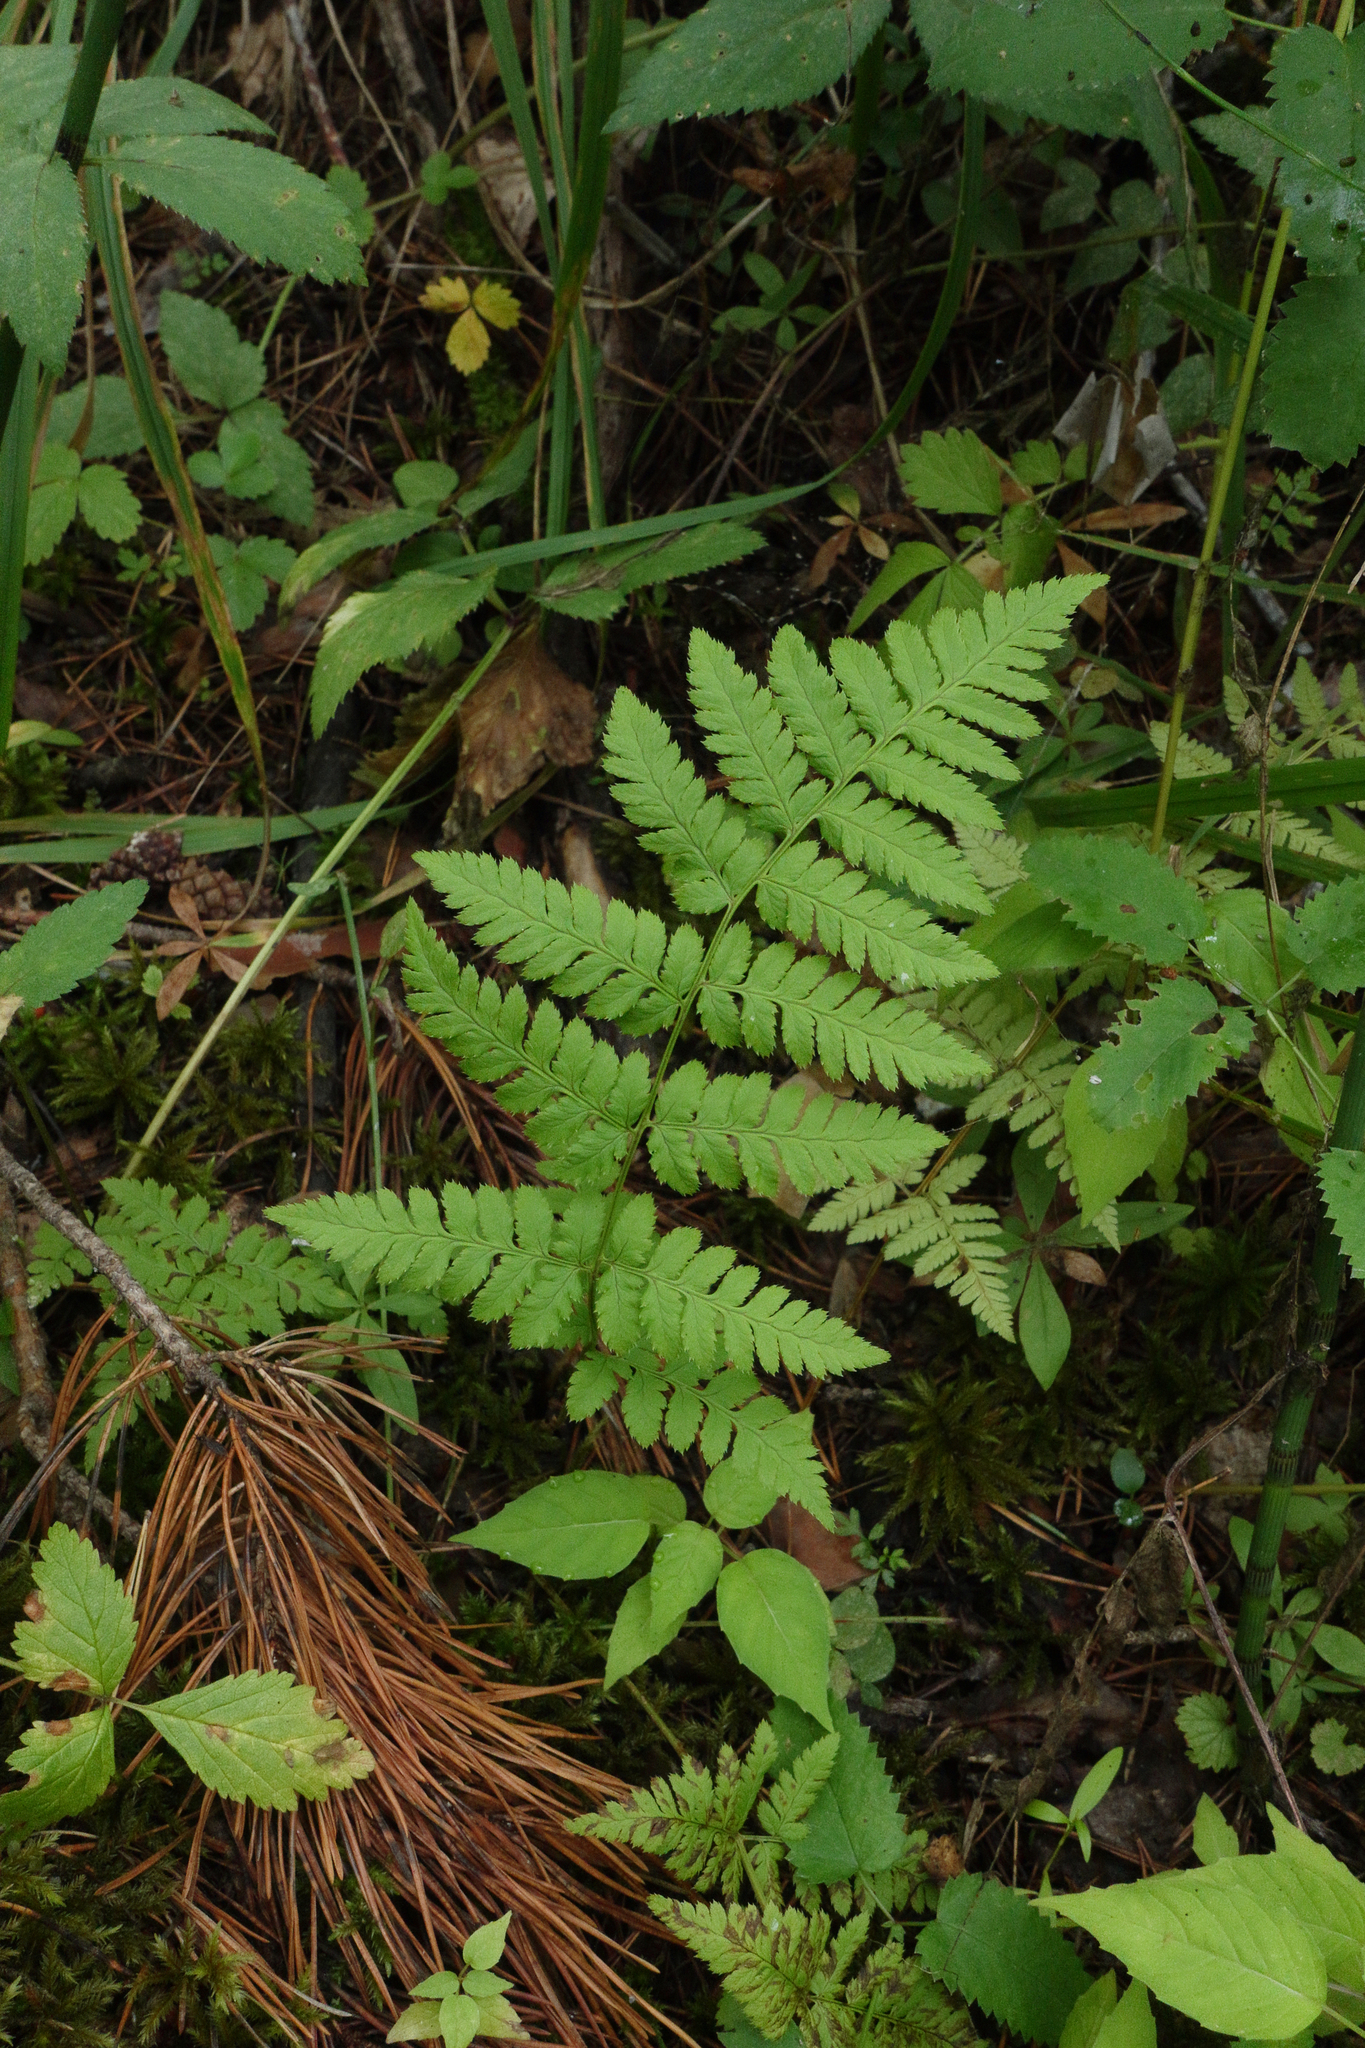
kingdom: Plantae
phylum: Tracheophyta
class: Polypodiopsida
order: Polypodiales
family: Dryopteridaceae
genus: Dryopteris
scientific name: Dryopteris carthusiana
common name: Narrow buckler-fern
